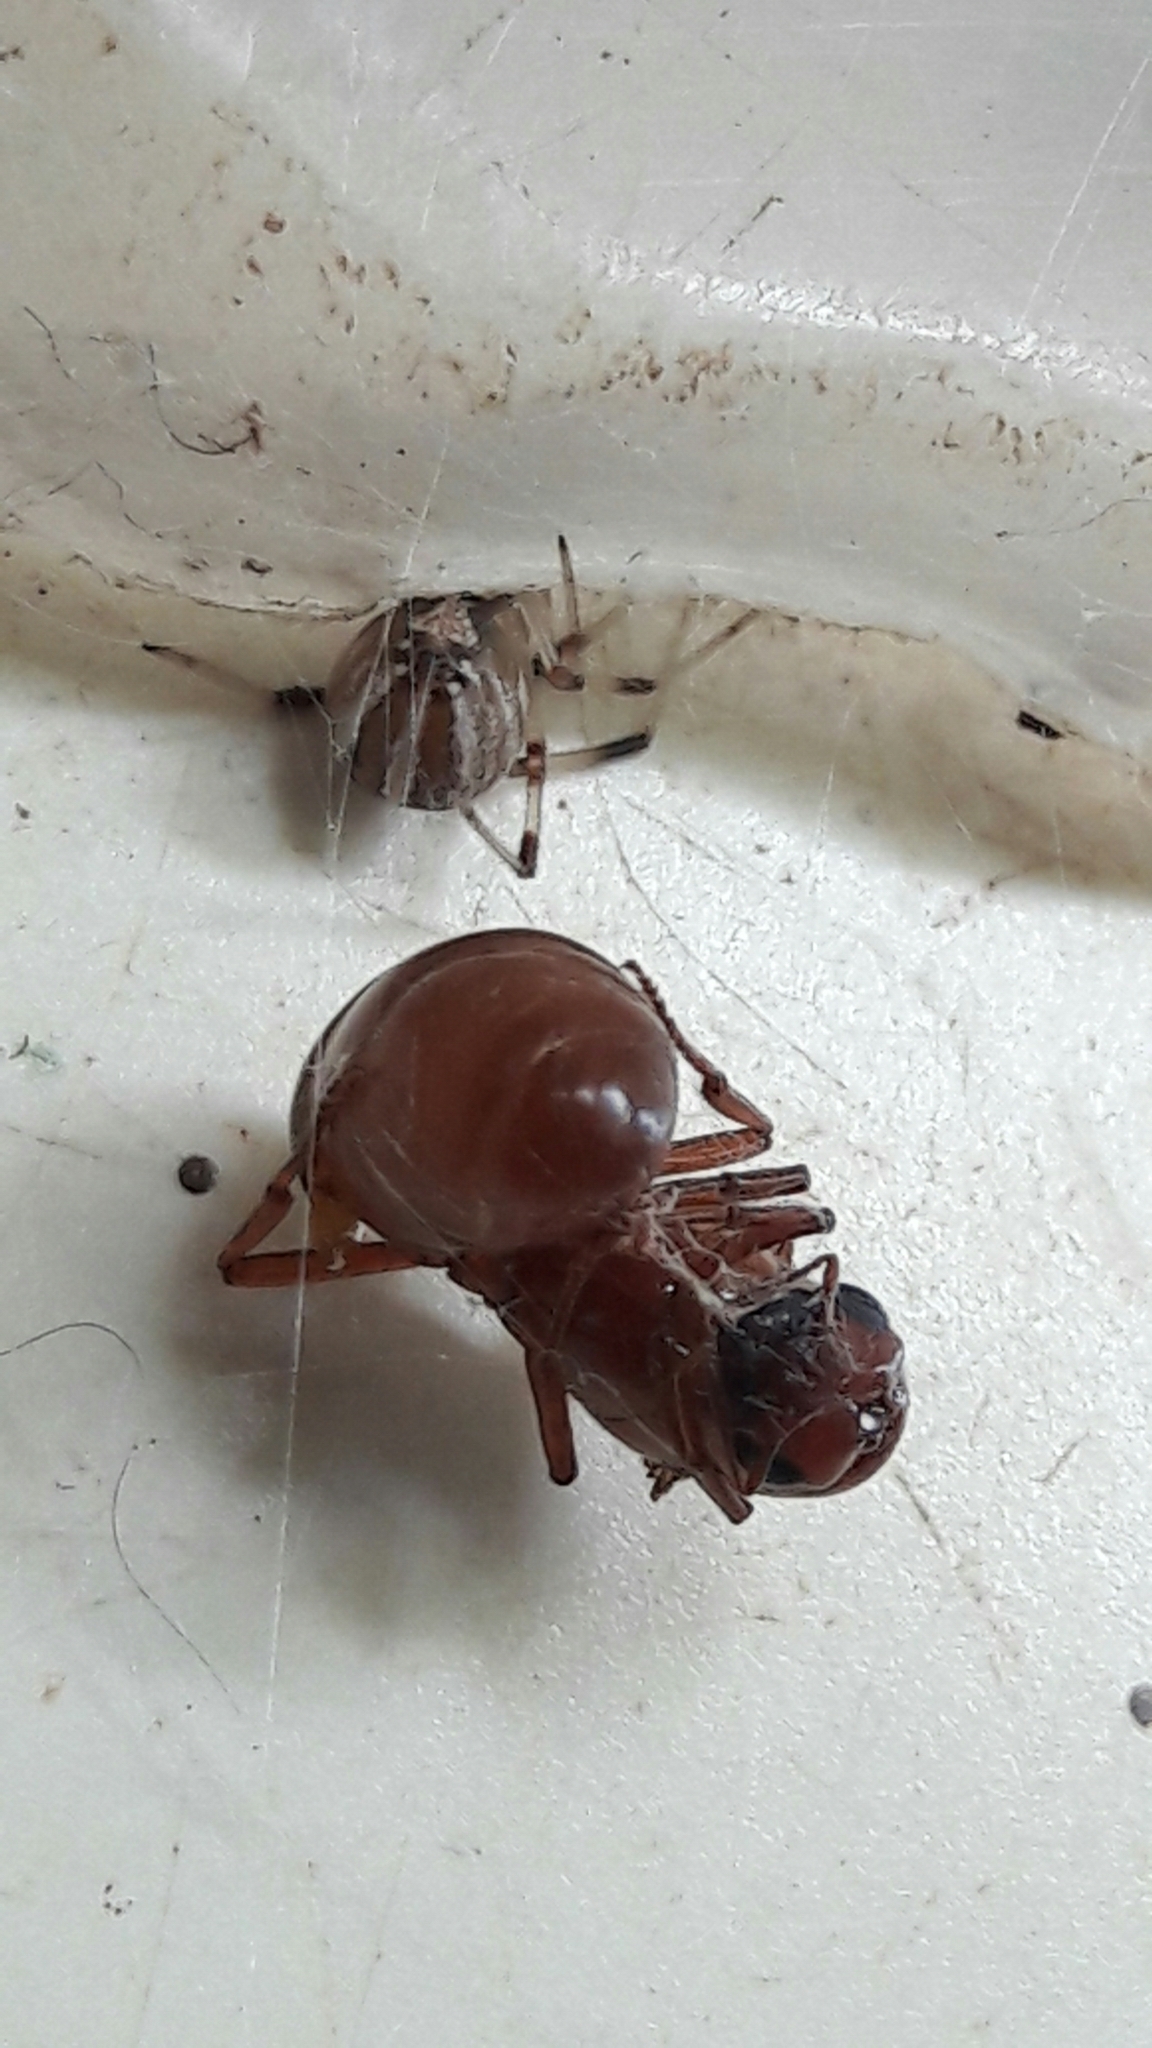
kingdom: Animalia
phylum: Arthropoda
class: Insecta
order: Hymenoptera
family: Formicidae
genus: Carebara
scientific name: Carebara
